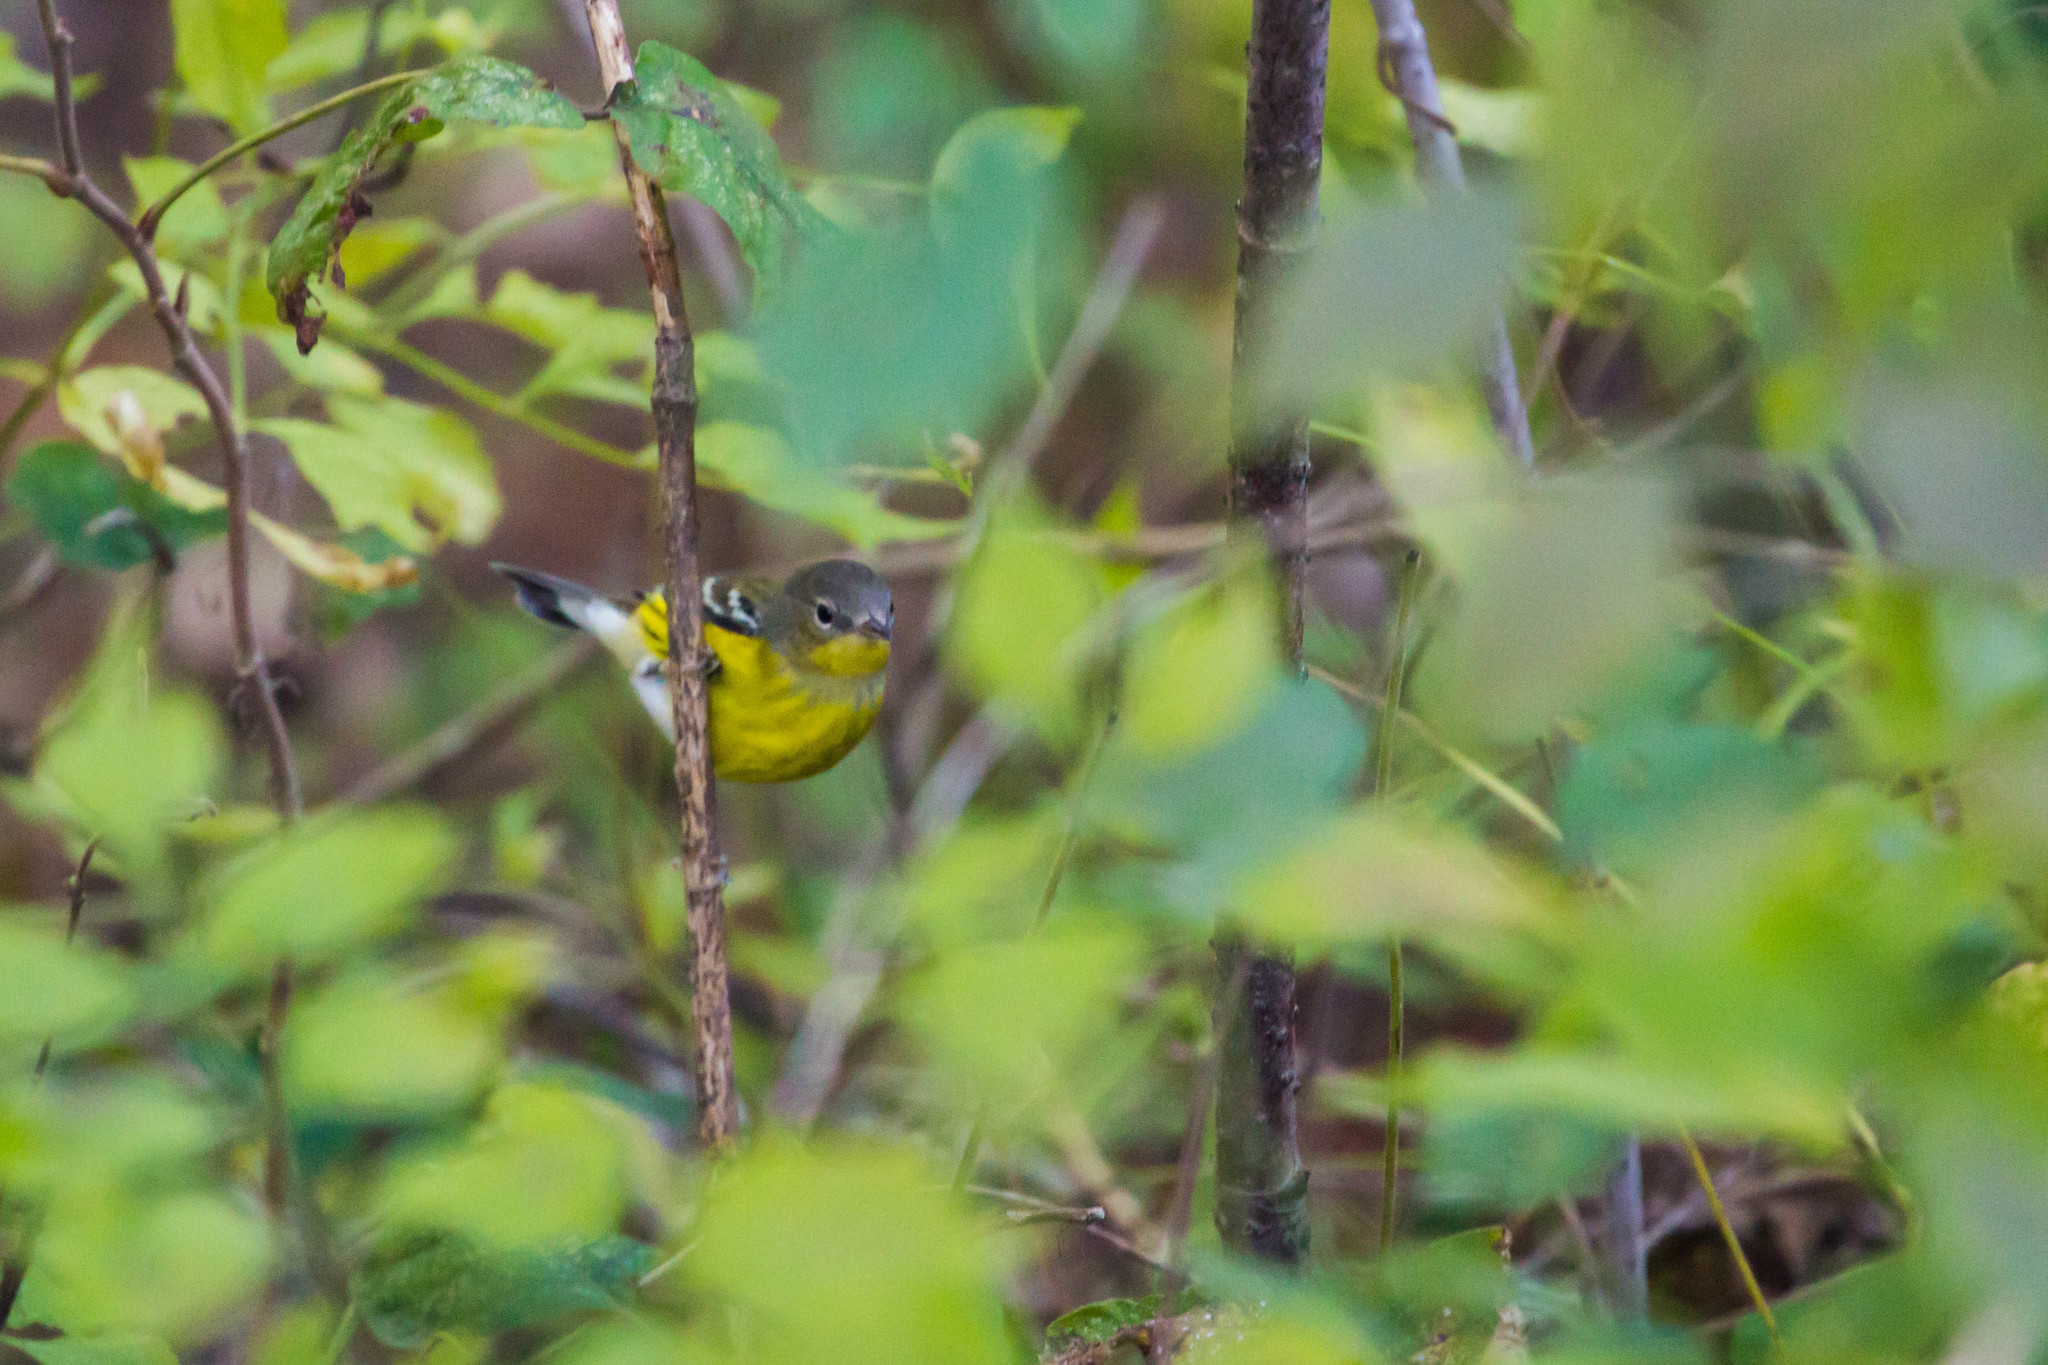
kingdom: Animalia
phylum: Chordata
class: Aves
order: Passeriformes
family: Parulidae
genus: Setophaga
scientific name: Setophaga magnolia
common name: Magnolia warbler
